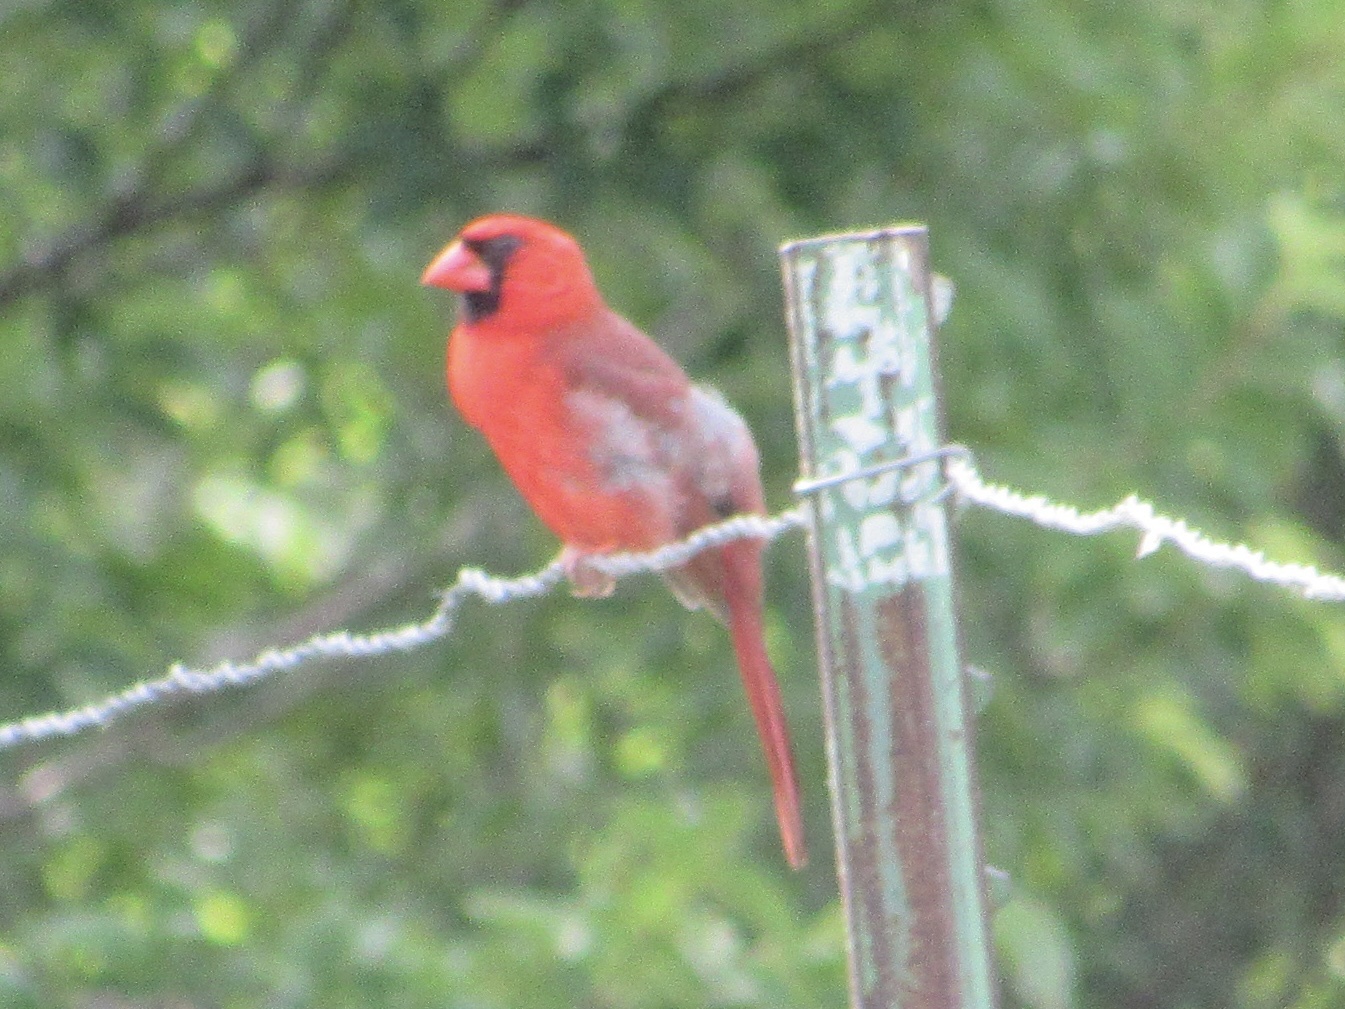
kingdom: Animalia
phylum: Chordata
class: Aves
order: Passeriformes
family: Cardinalidae
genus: Cardinalis
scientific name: Cardinalis cardinalis
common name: Northern cardinal
